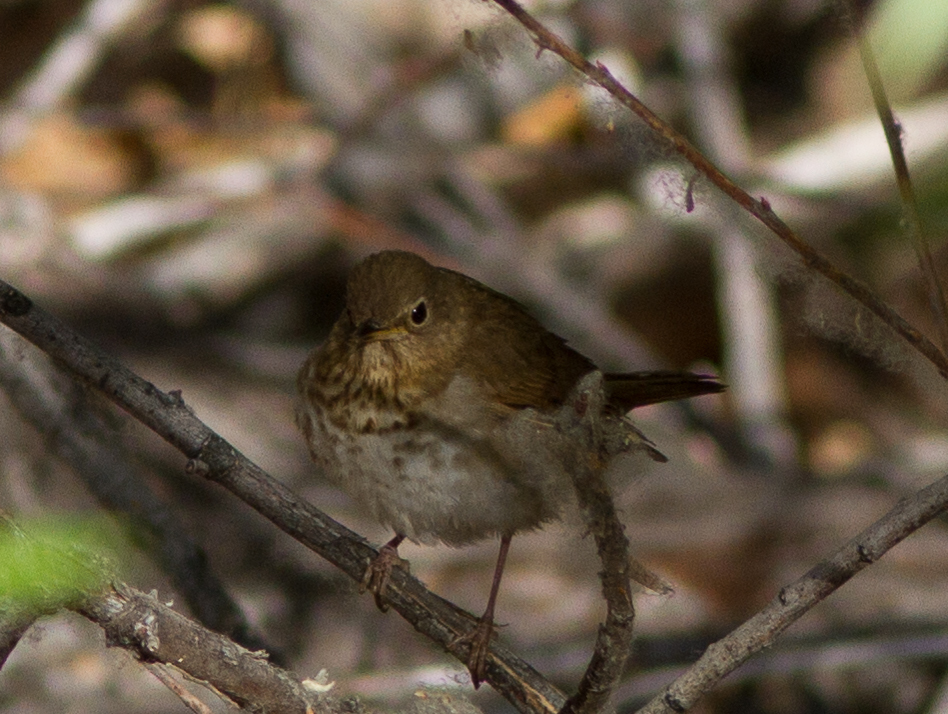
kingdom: Animalia
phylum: Chordata
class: Aves
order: Passeriformes
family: Turdidae
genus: Catharus
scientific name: Catharus ustulatus
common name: Swainson's thrush
